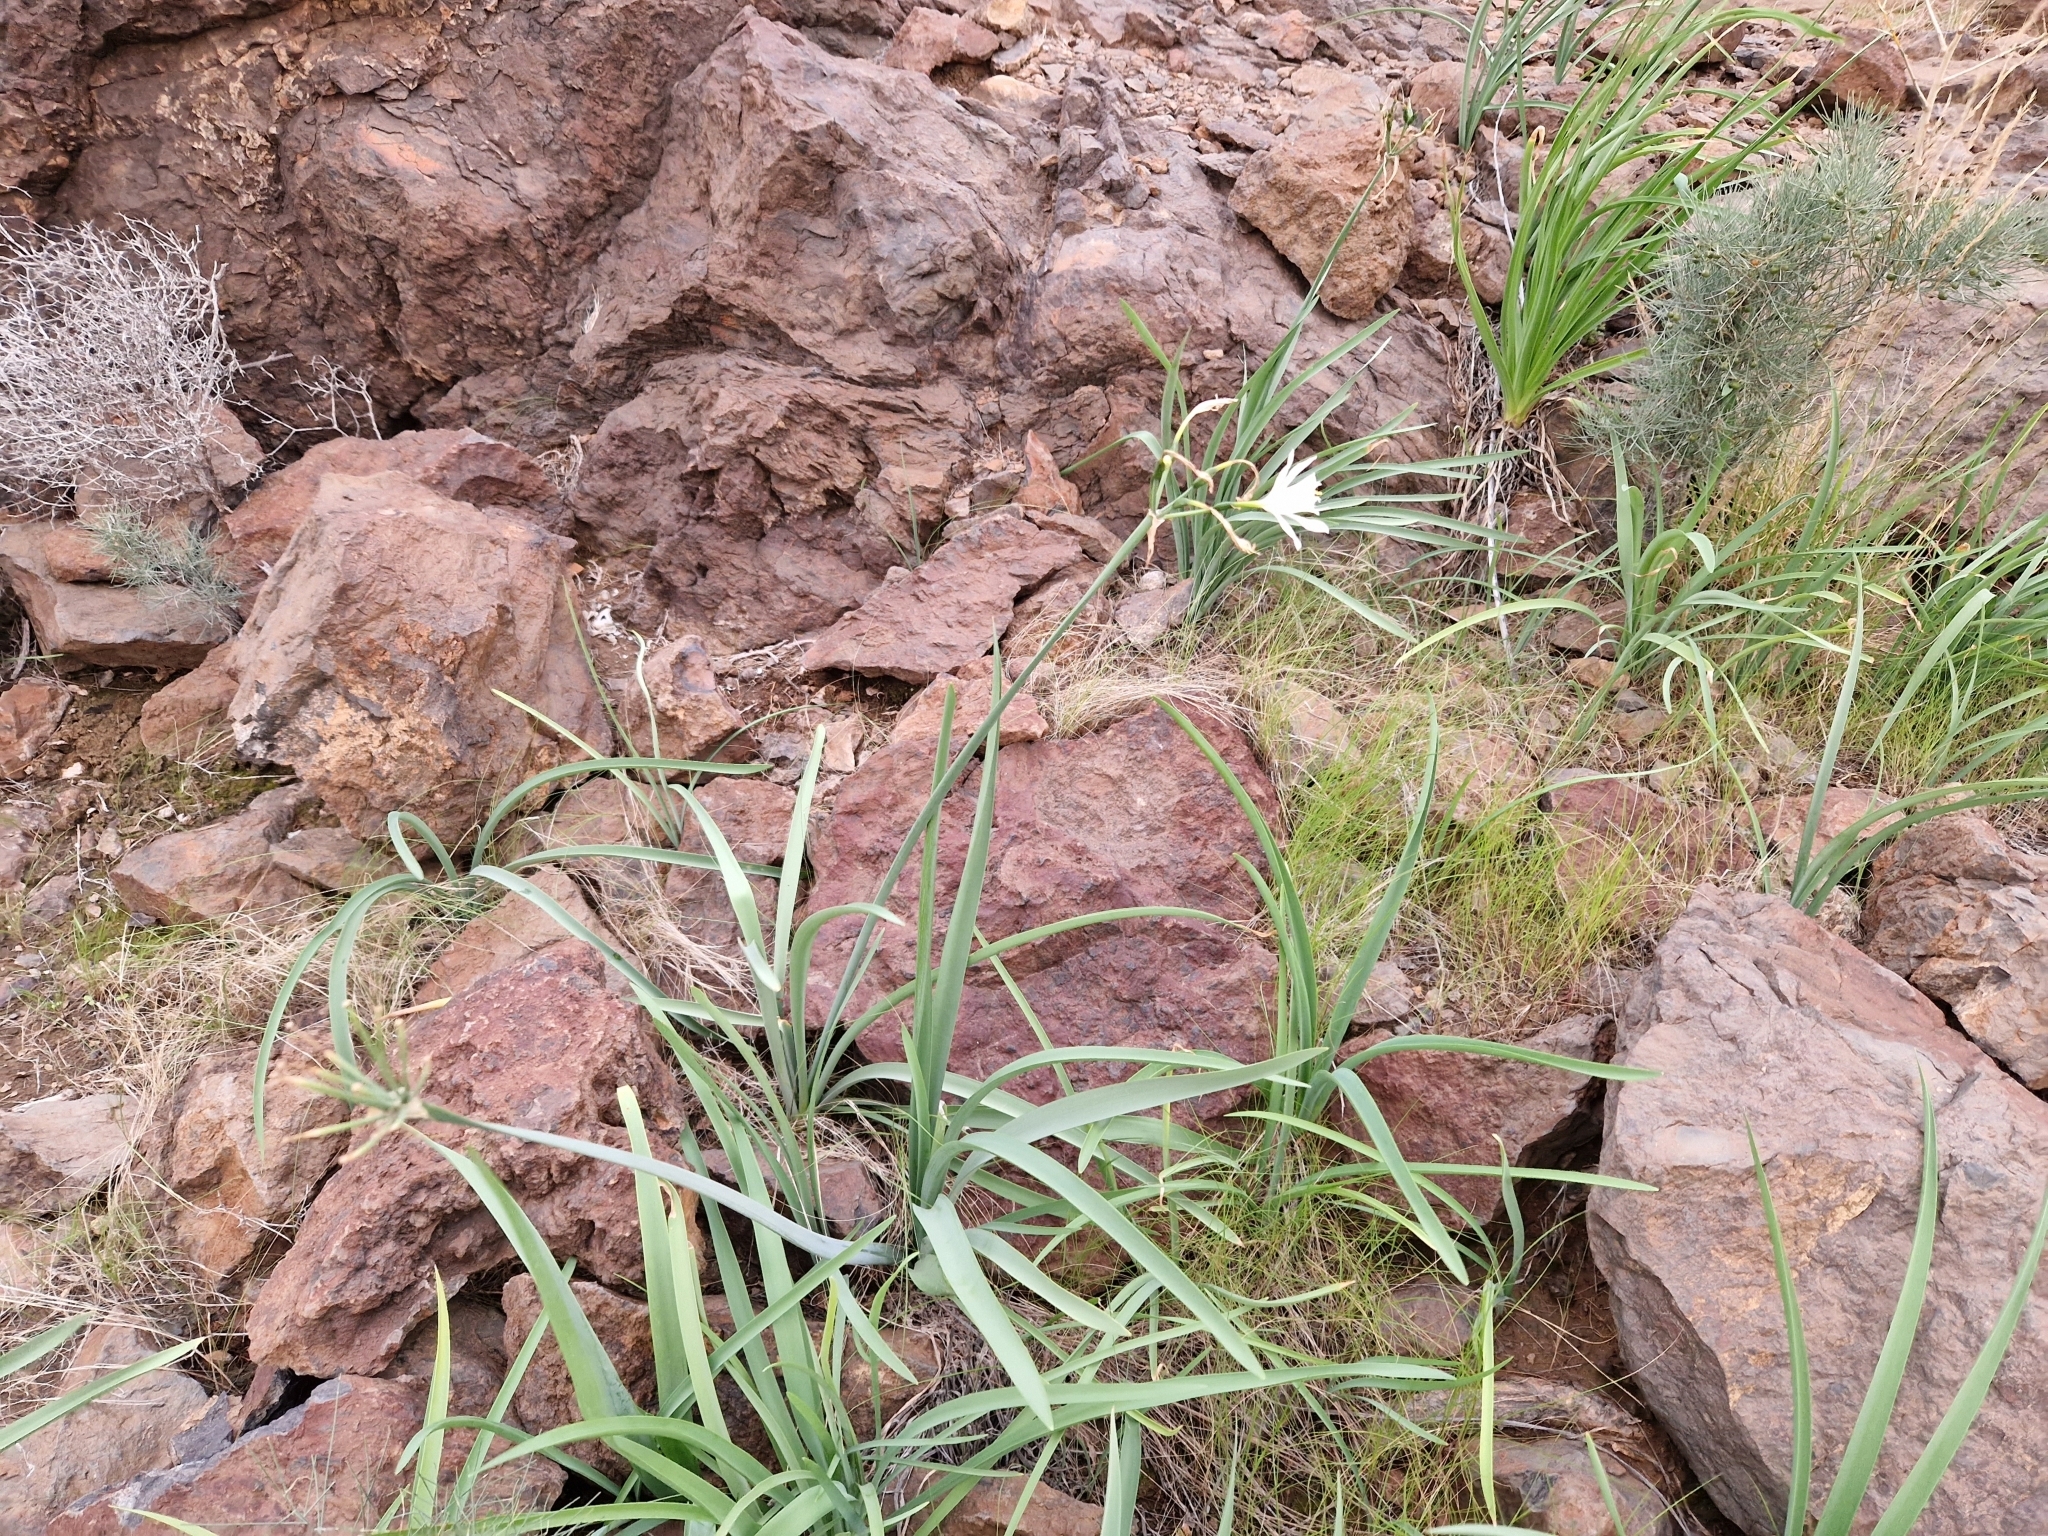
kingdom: Plantae
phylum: Tracheophyta
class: Liliopsida
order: Asparagales
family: Amaryllidaceae
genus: Pancratium
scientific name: Pancratium canariense
